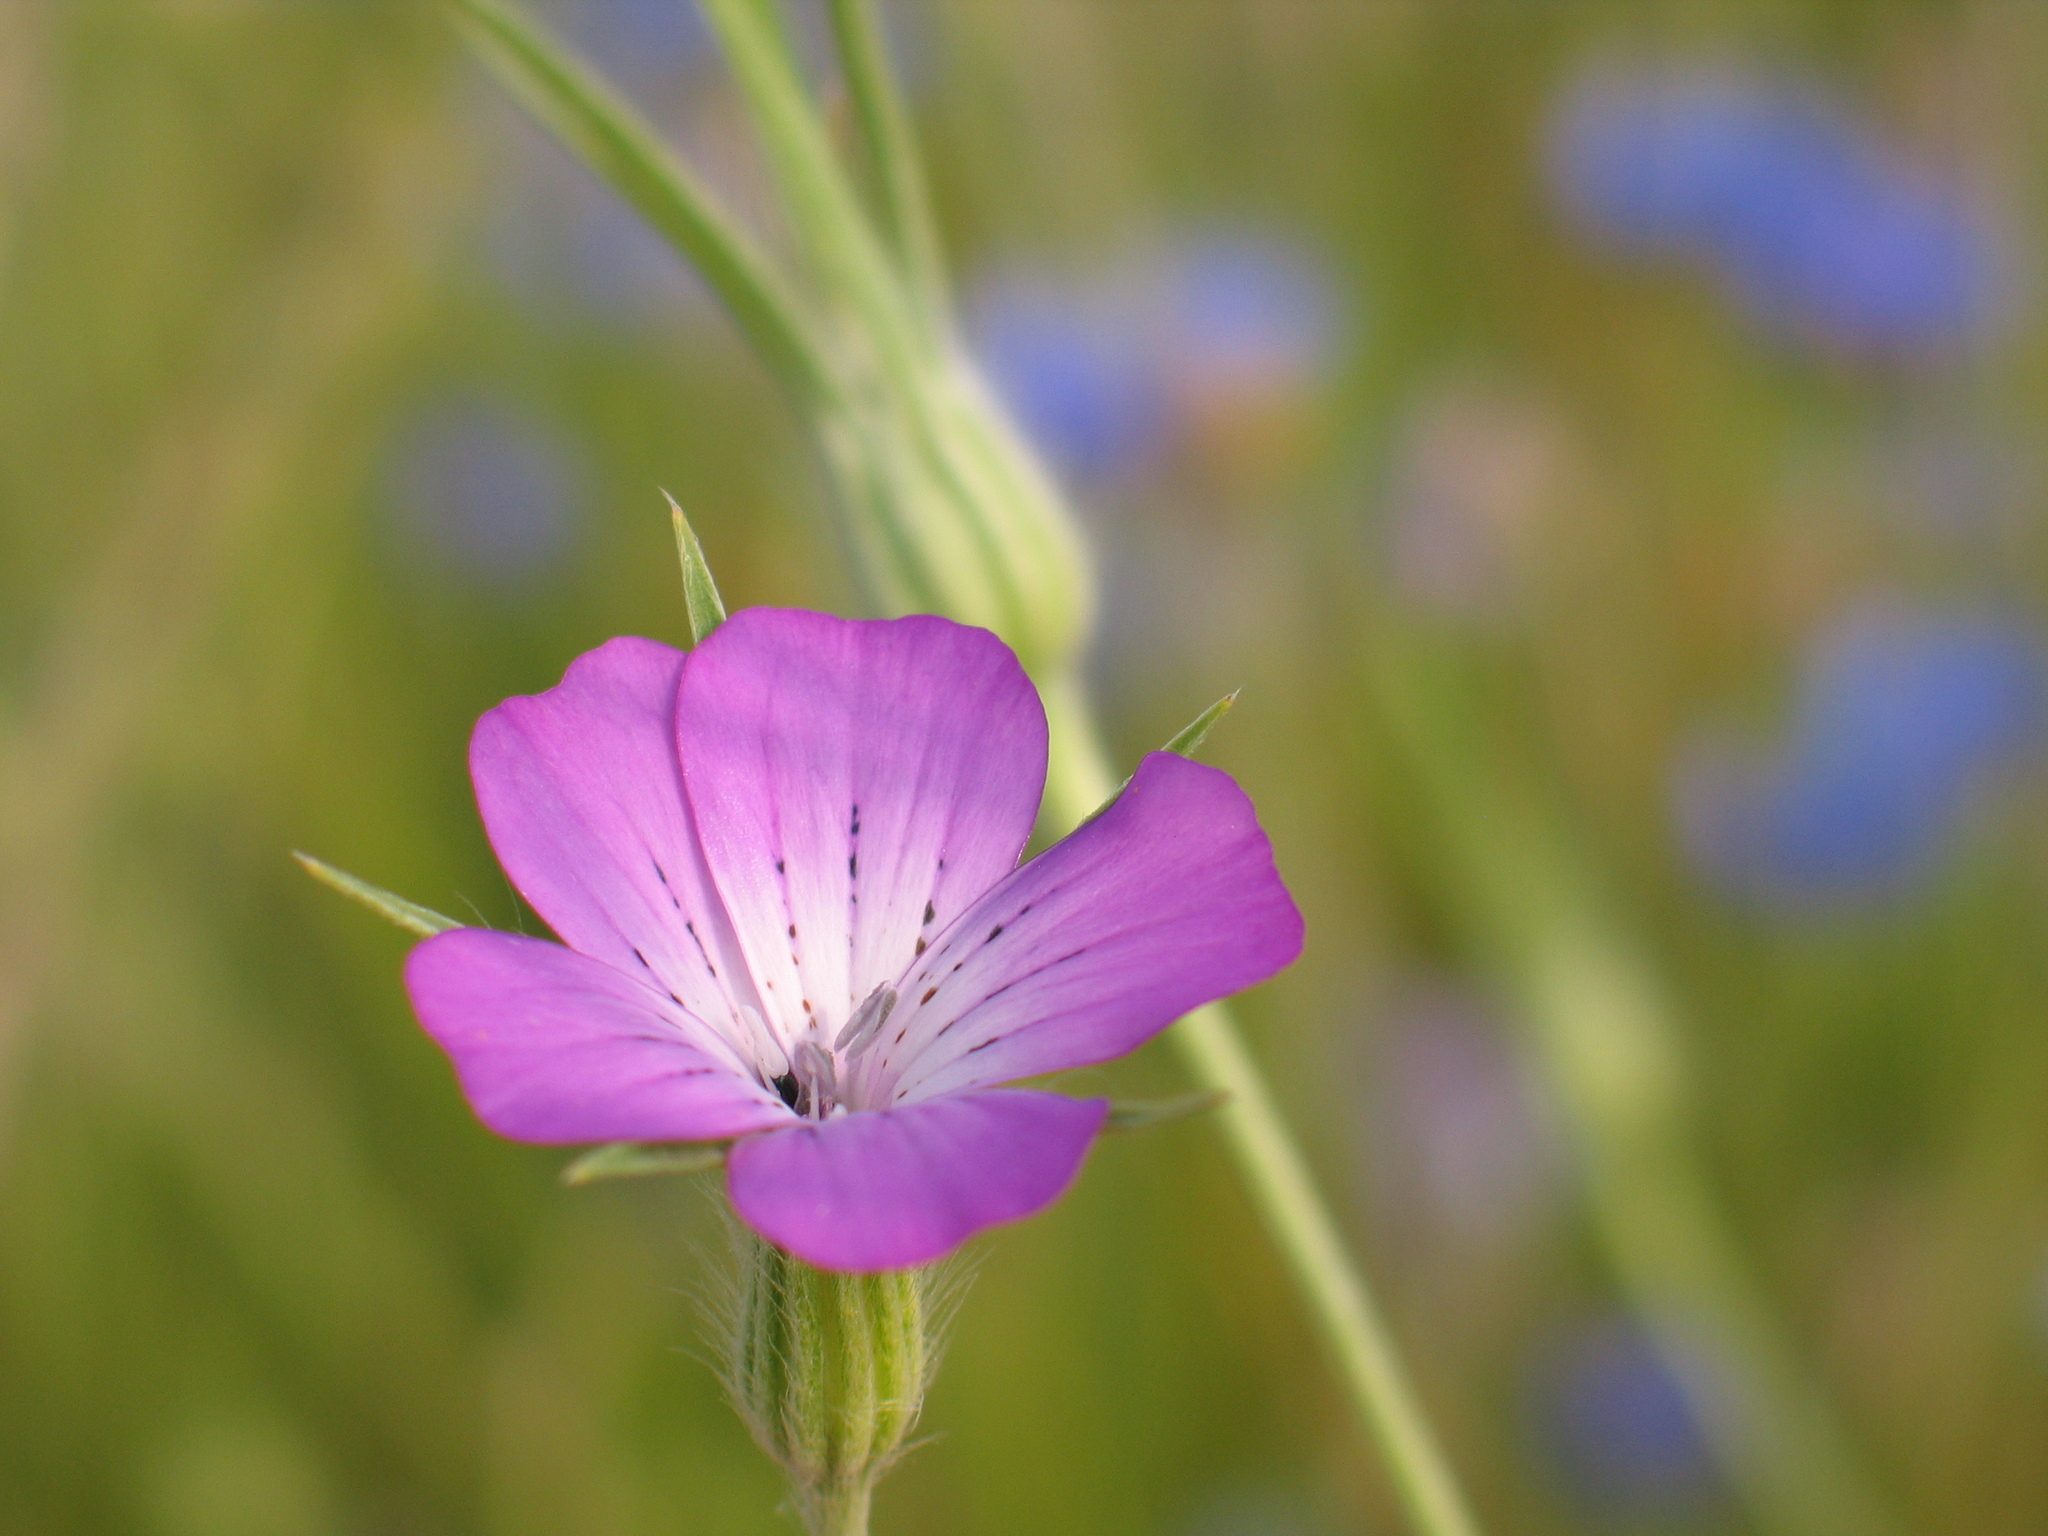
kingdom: Plantae
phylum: Tracheophyta
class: Magnoliopsida
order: Caryophyllales
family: Caryophyllaceae
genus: Agrostemma
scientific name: Agrostemma githago
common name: Common corncockle
